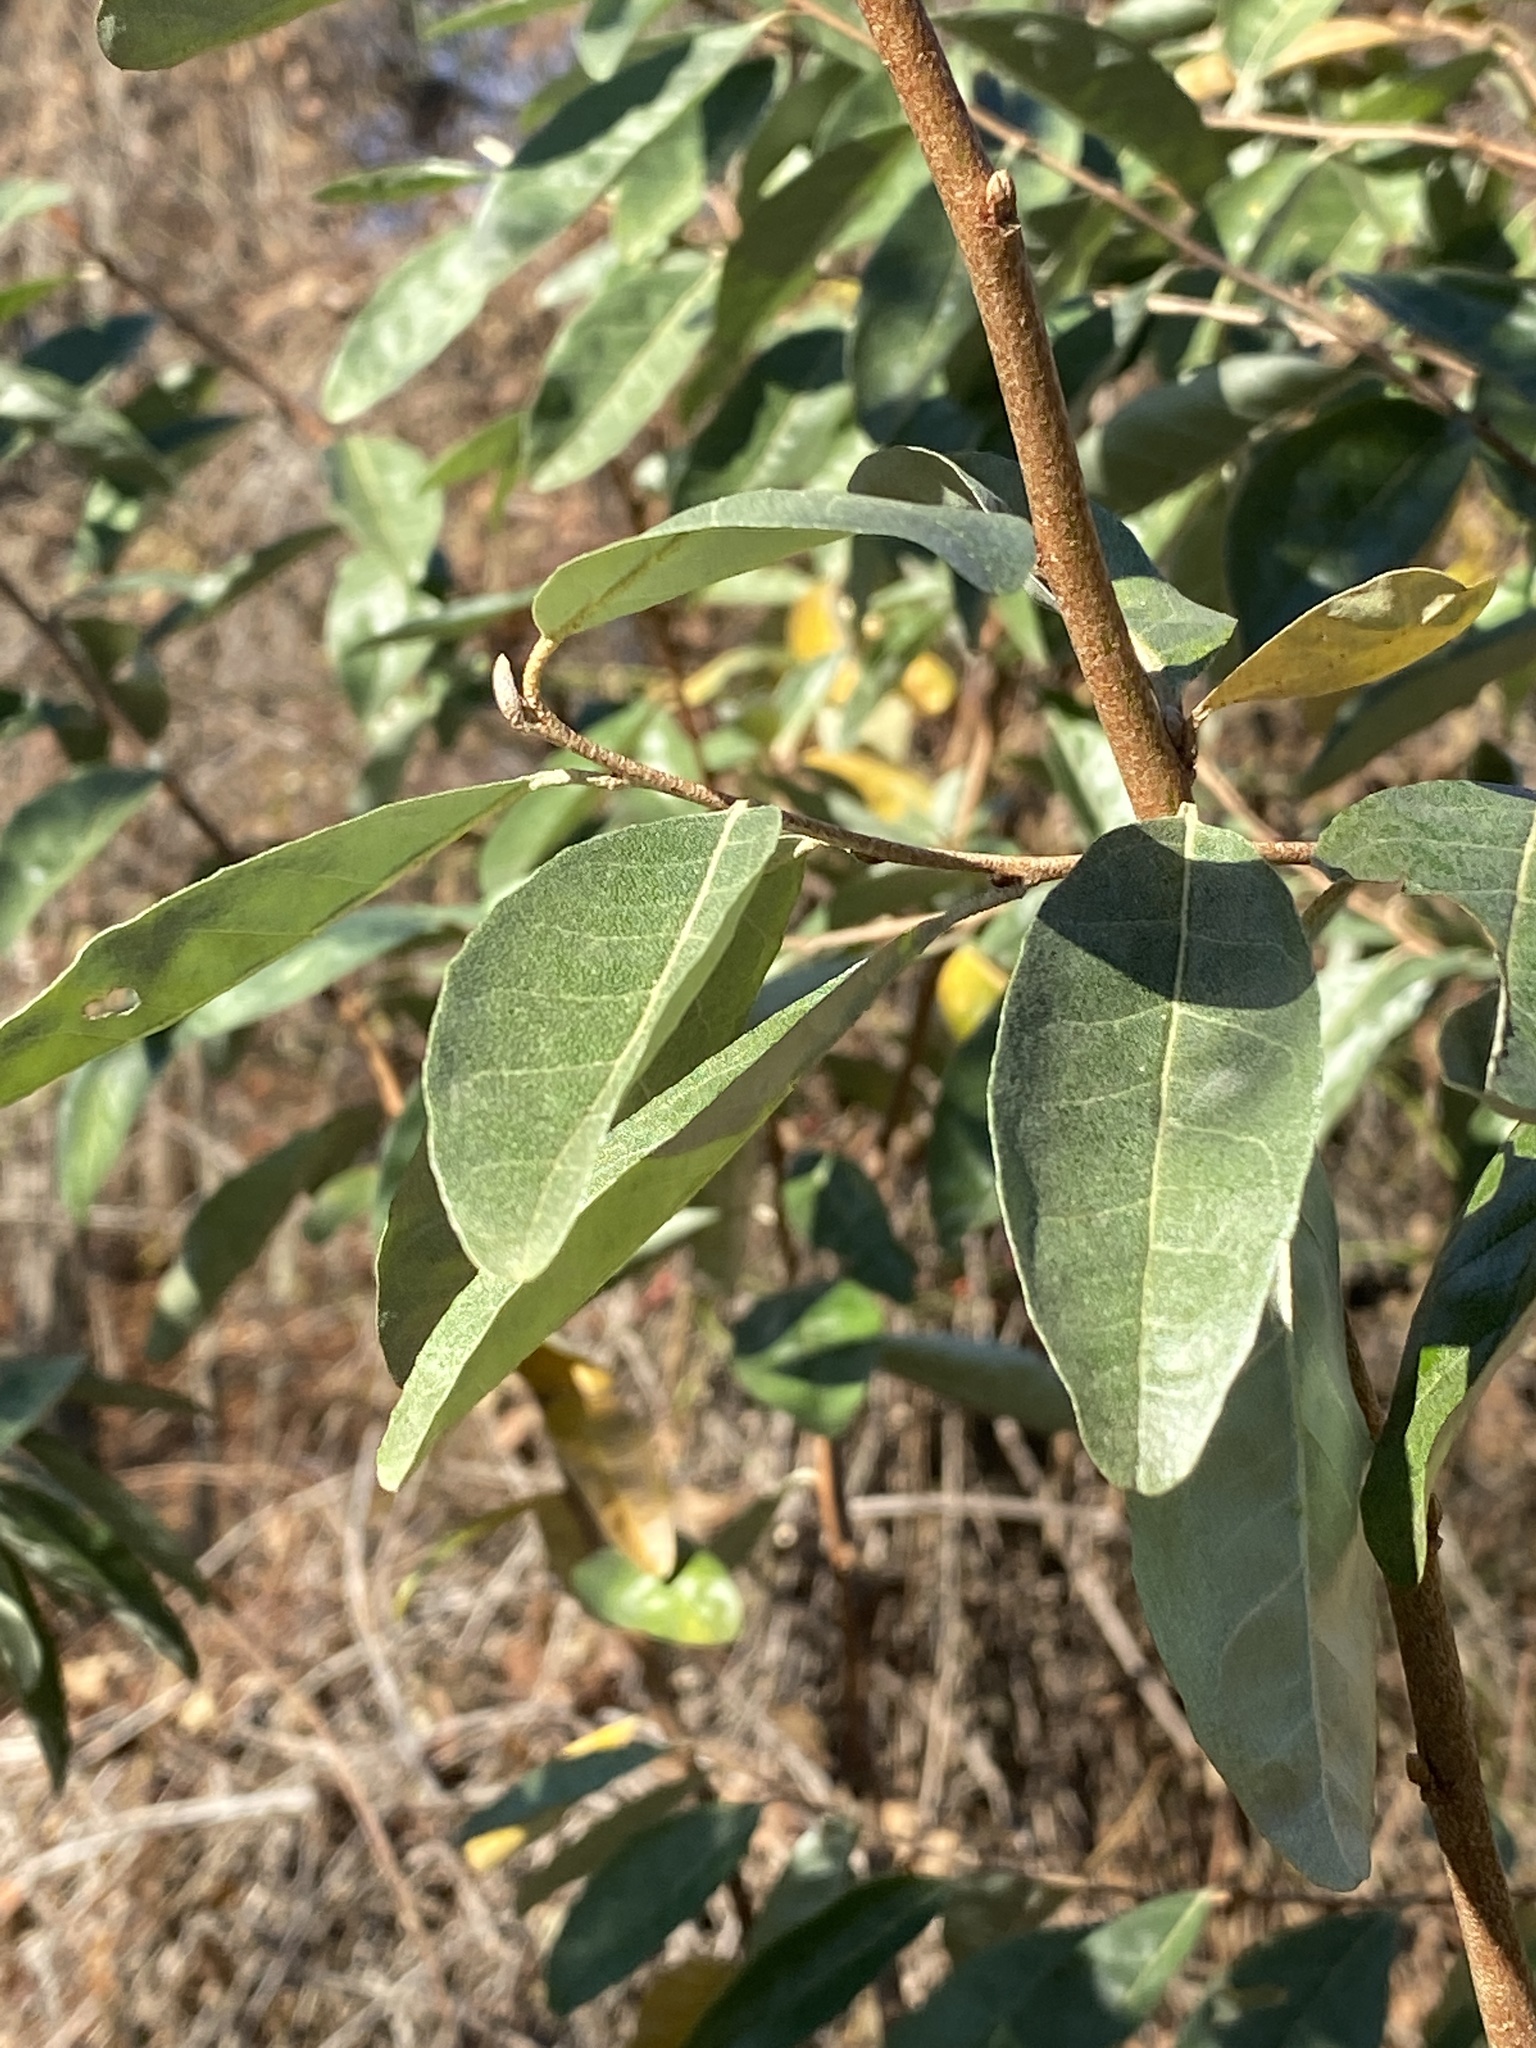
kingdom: Plantae
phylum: Tracheophyta
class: Magnoliopsida
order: Rosales
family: Elaeagnaceae
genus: Elaeagnus
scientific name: Elaeagnus umbellata
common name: Autumn olive
